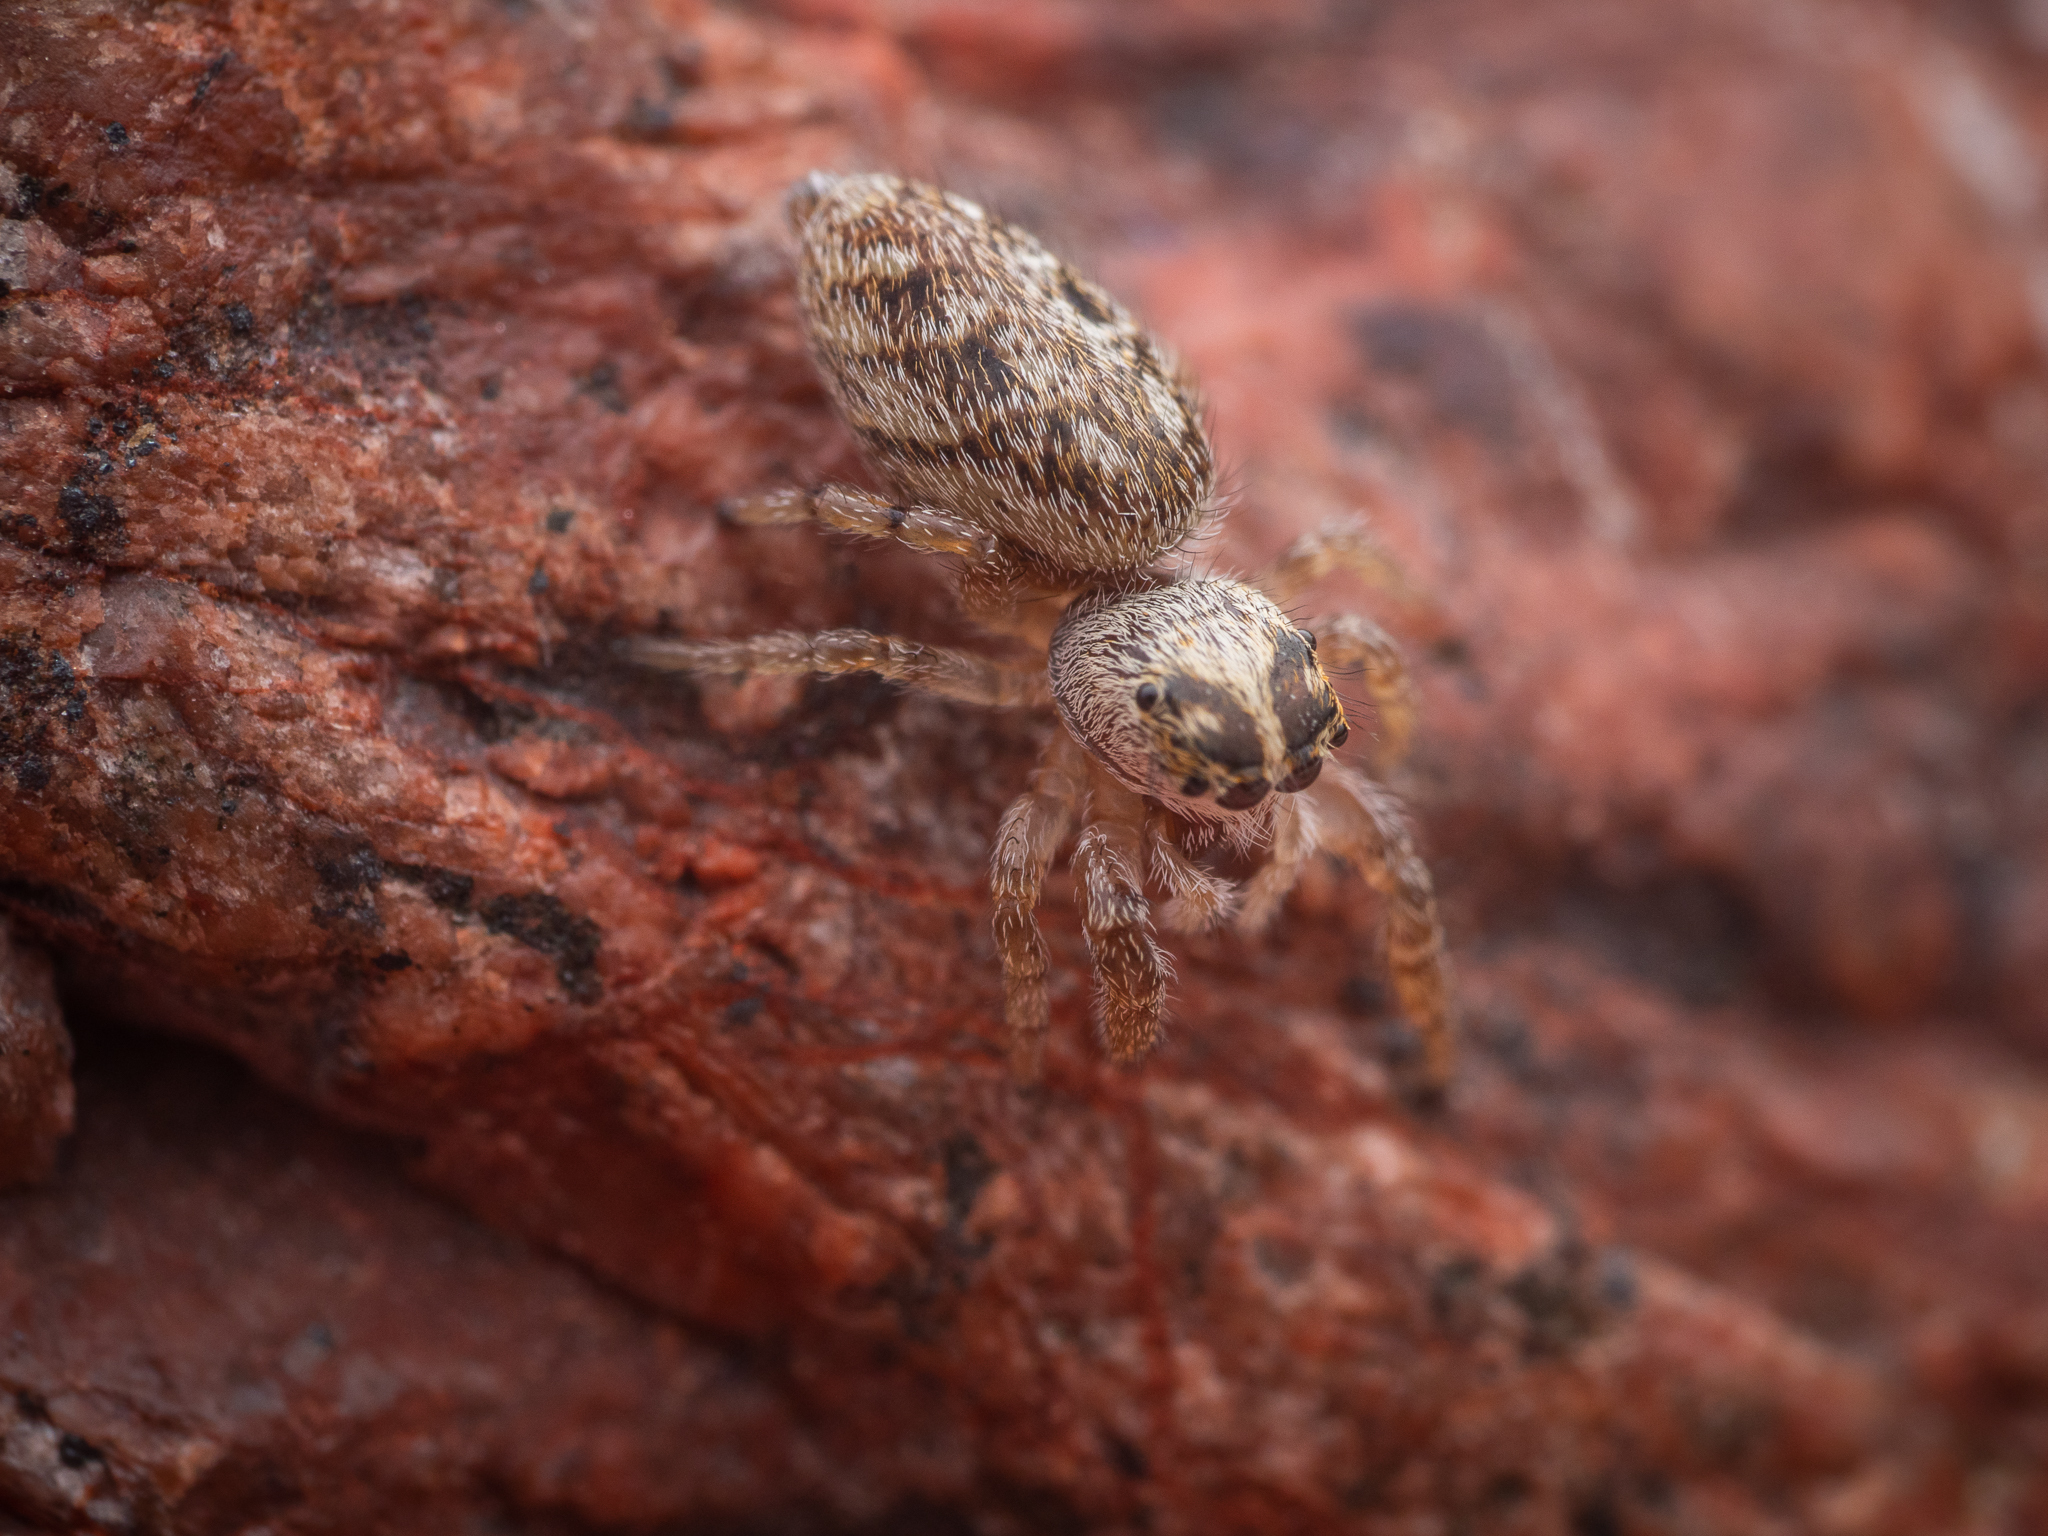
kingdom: Animalia
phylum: Arthropoda
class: Arachnida
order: Araneae
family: Salticidae
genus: Macaroeris
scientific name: Macaroeris nidicolens
